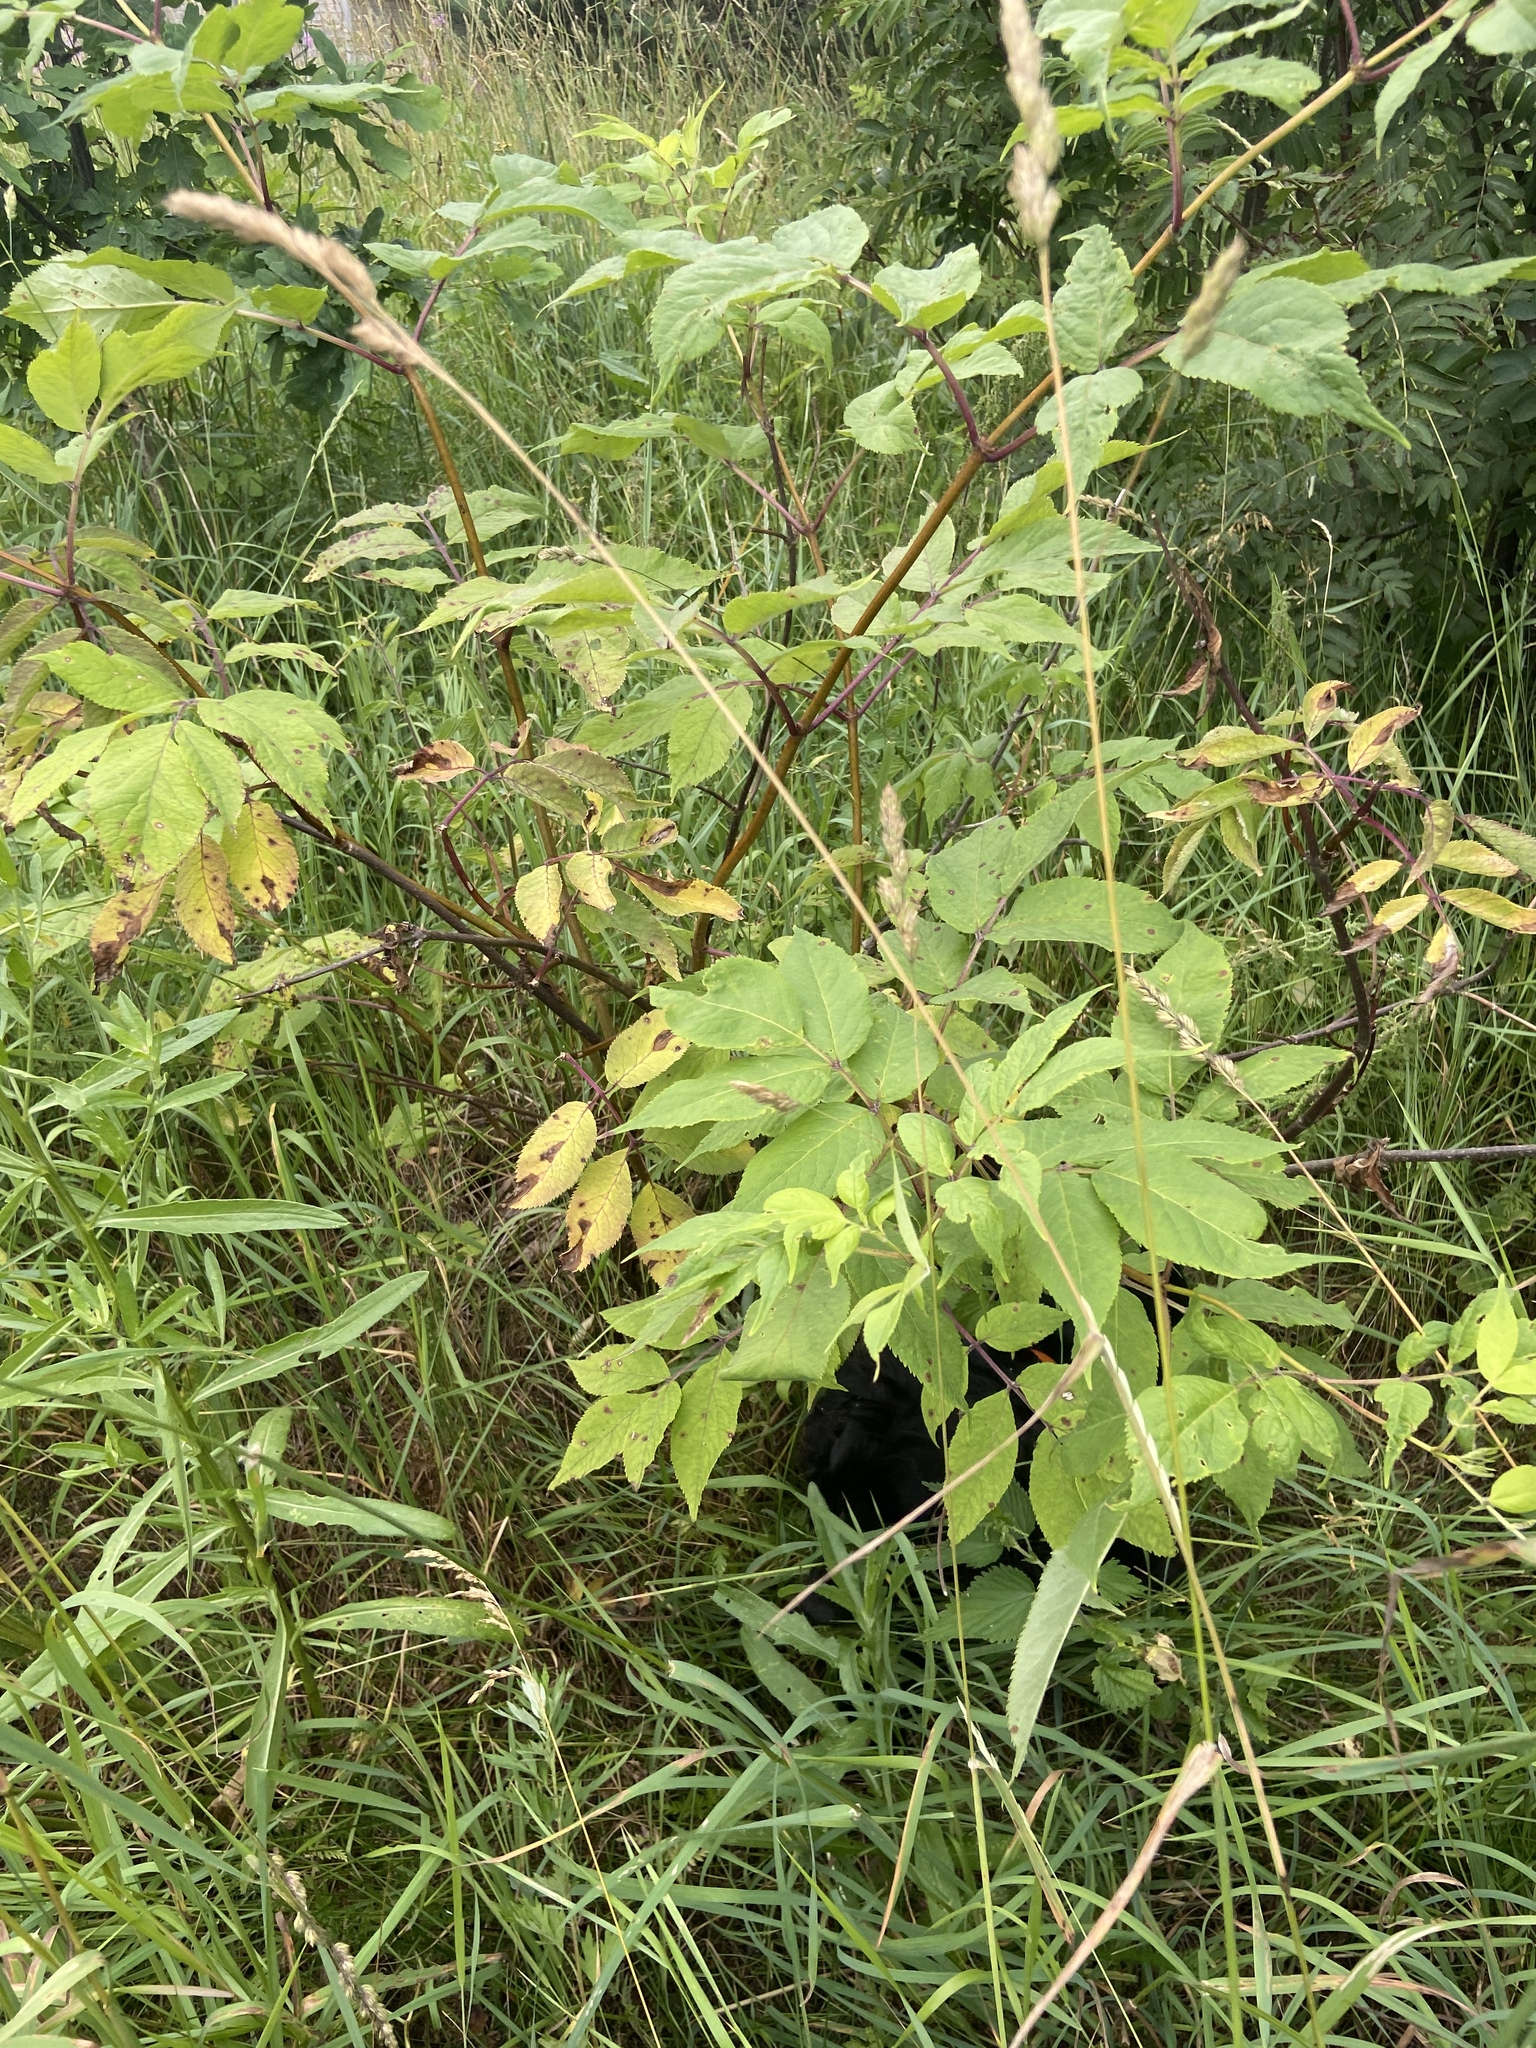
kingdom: Plantae
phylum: Tracheophyta
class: Magnoliopsida
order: Sapindales
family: Sapindaceae
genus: Acer
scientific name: Acer negundo
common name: Ashleaf maple
